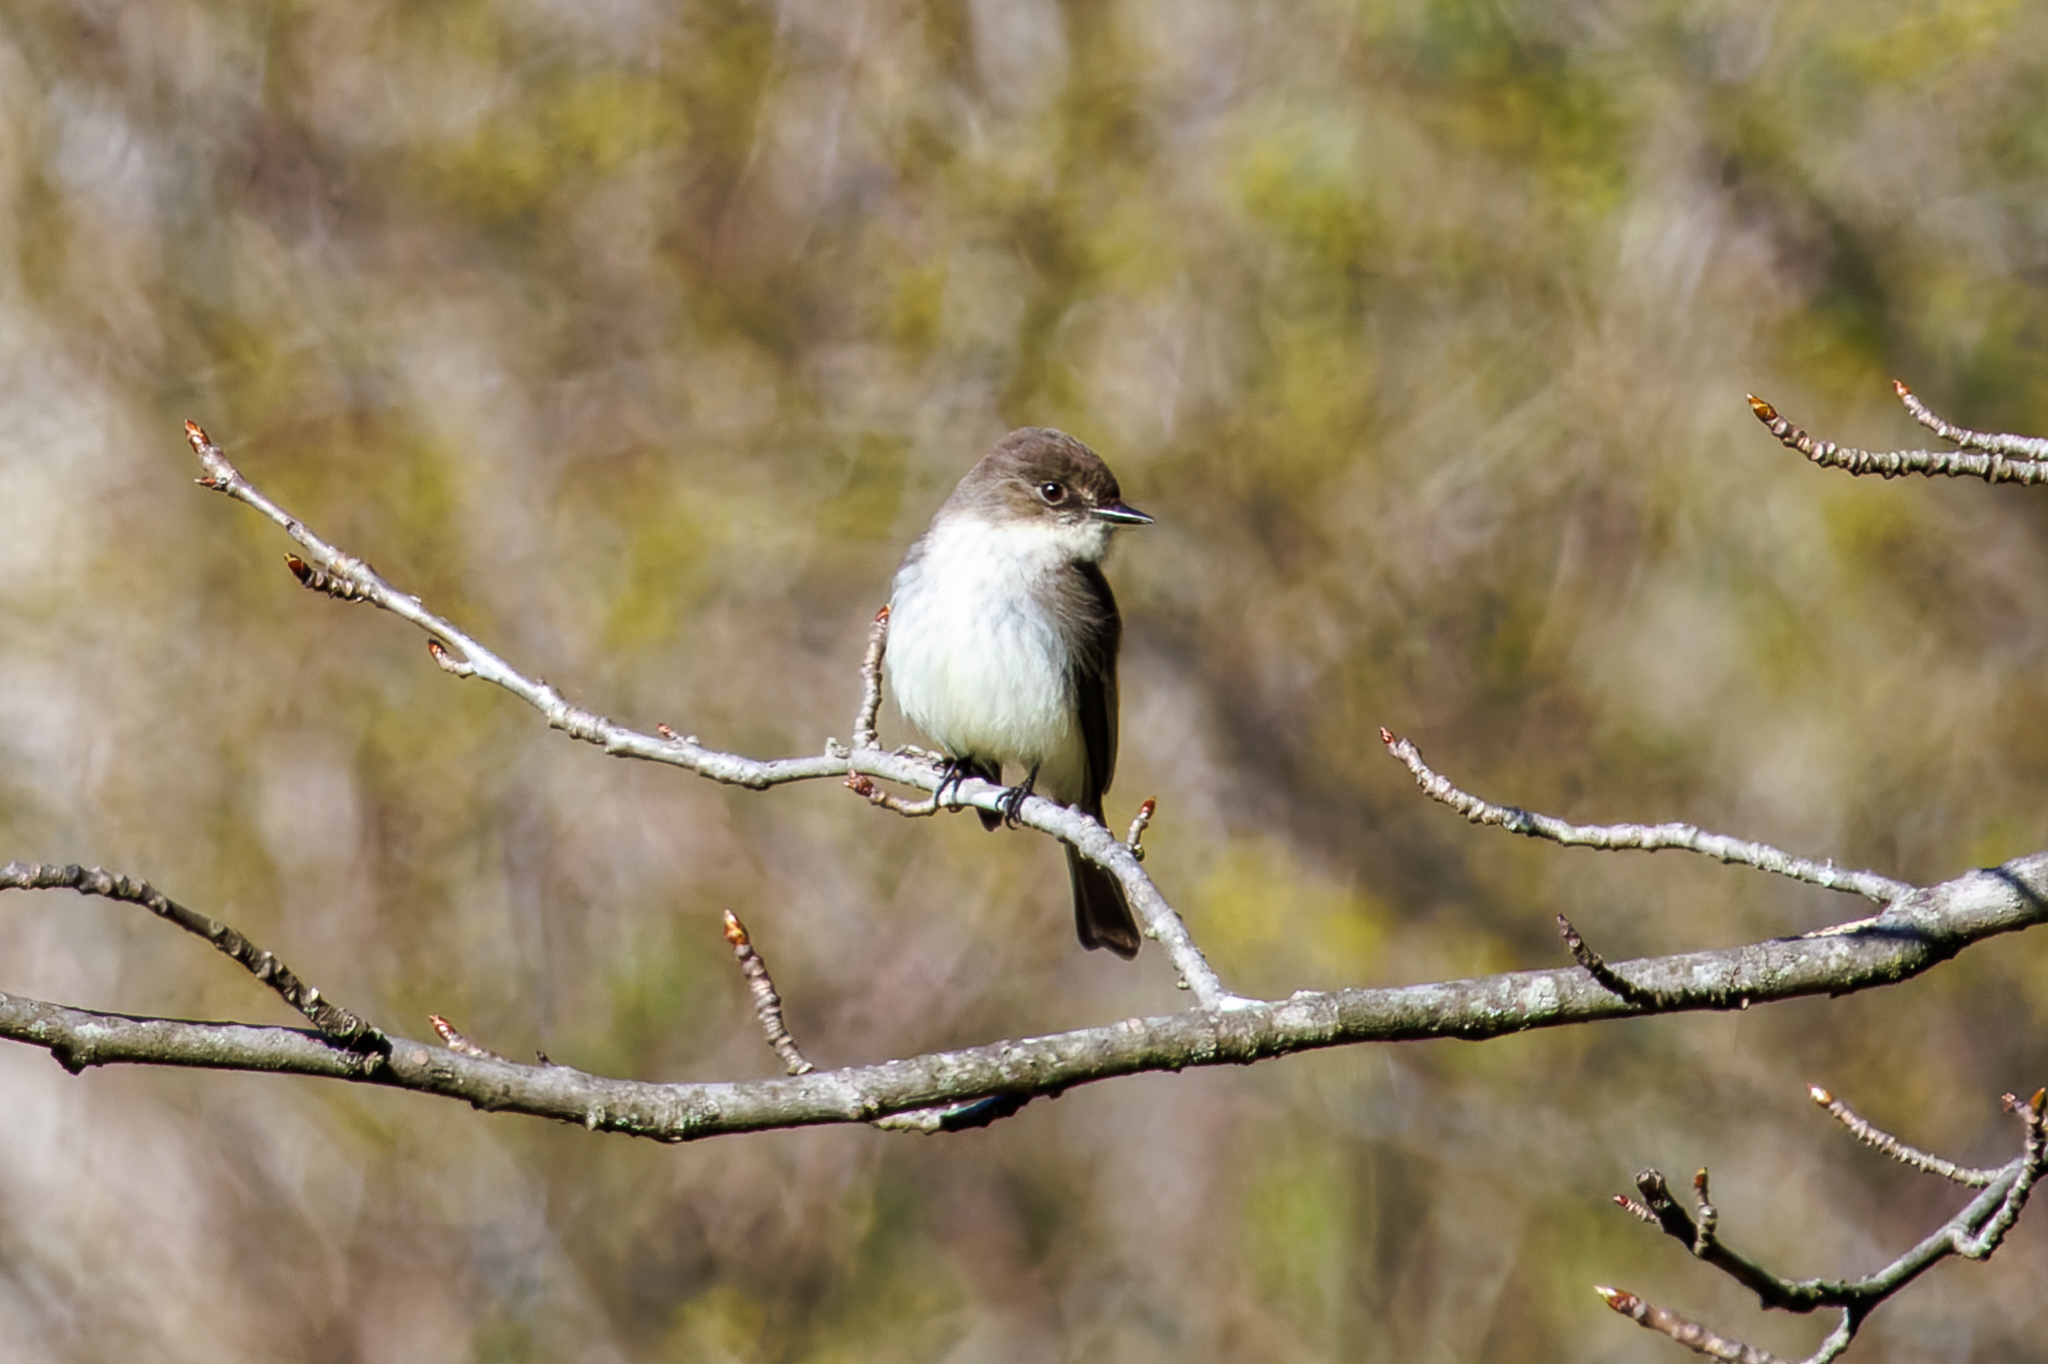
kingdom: Animalia
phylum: Chordata
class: Aves
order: Passeriformes
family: Tyrannidae
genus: Sayornis
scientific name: Sayornis phoebe
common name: Eastern phoebe
